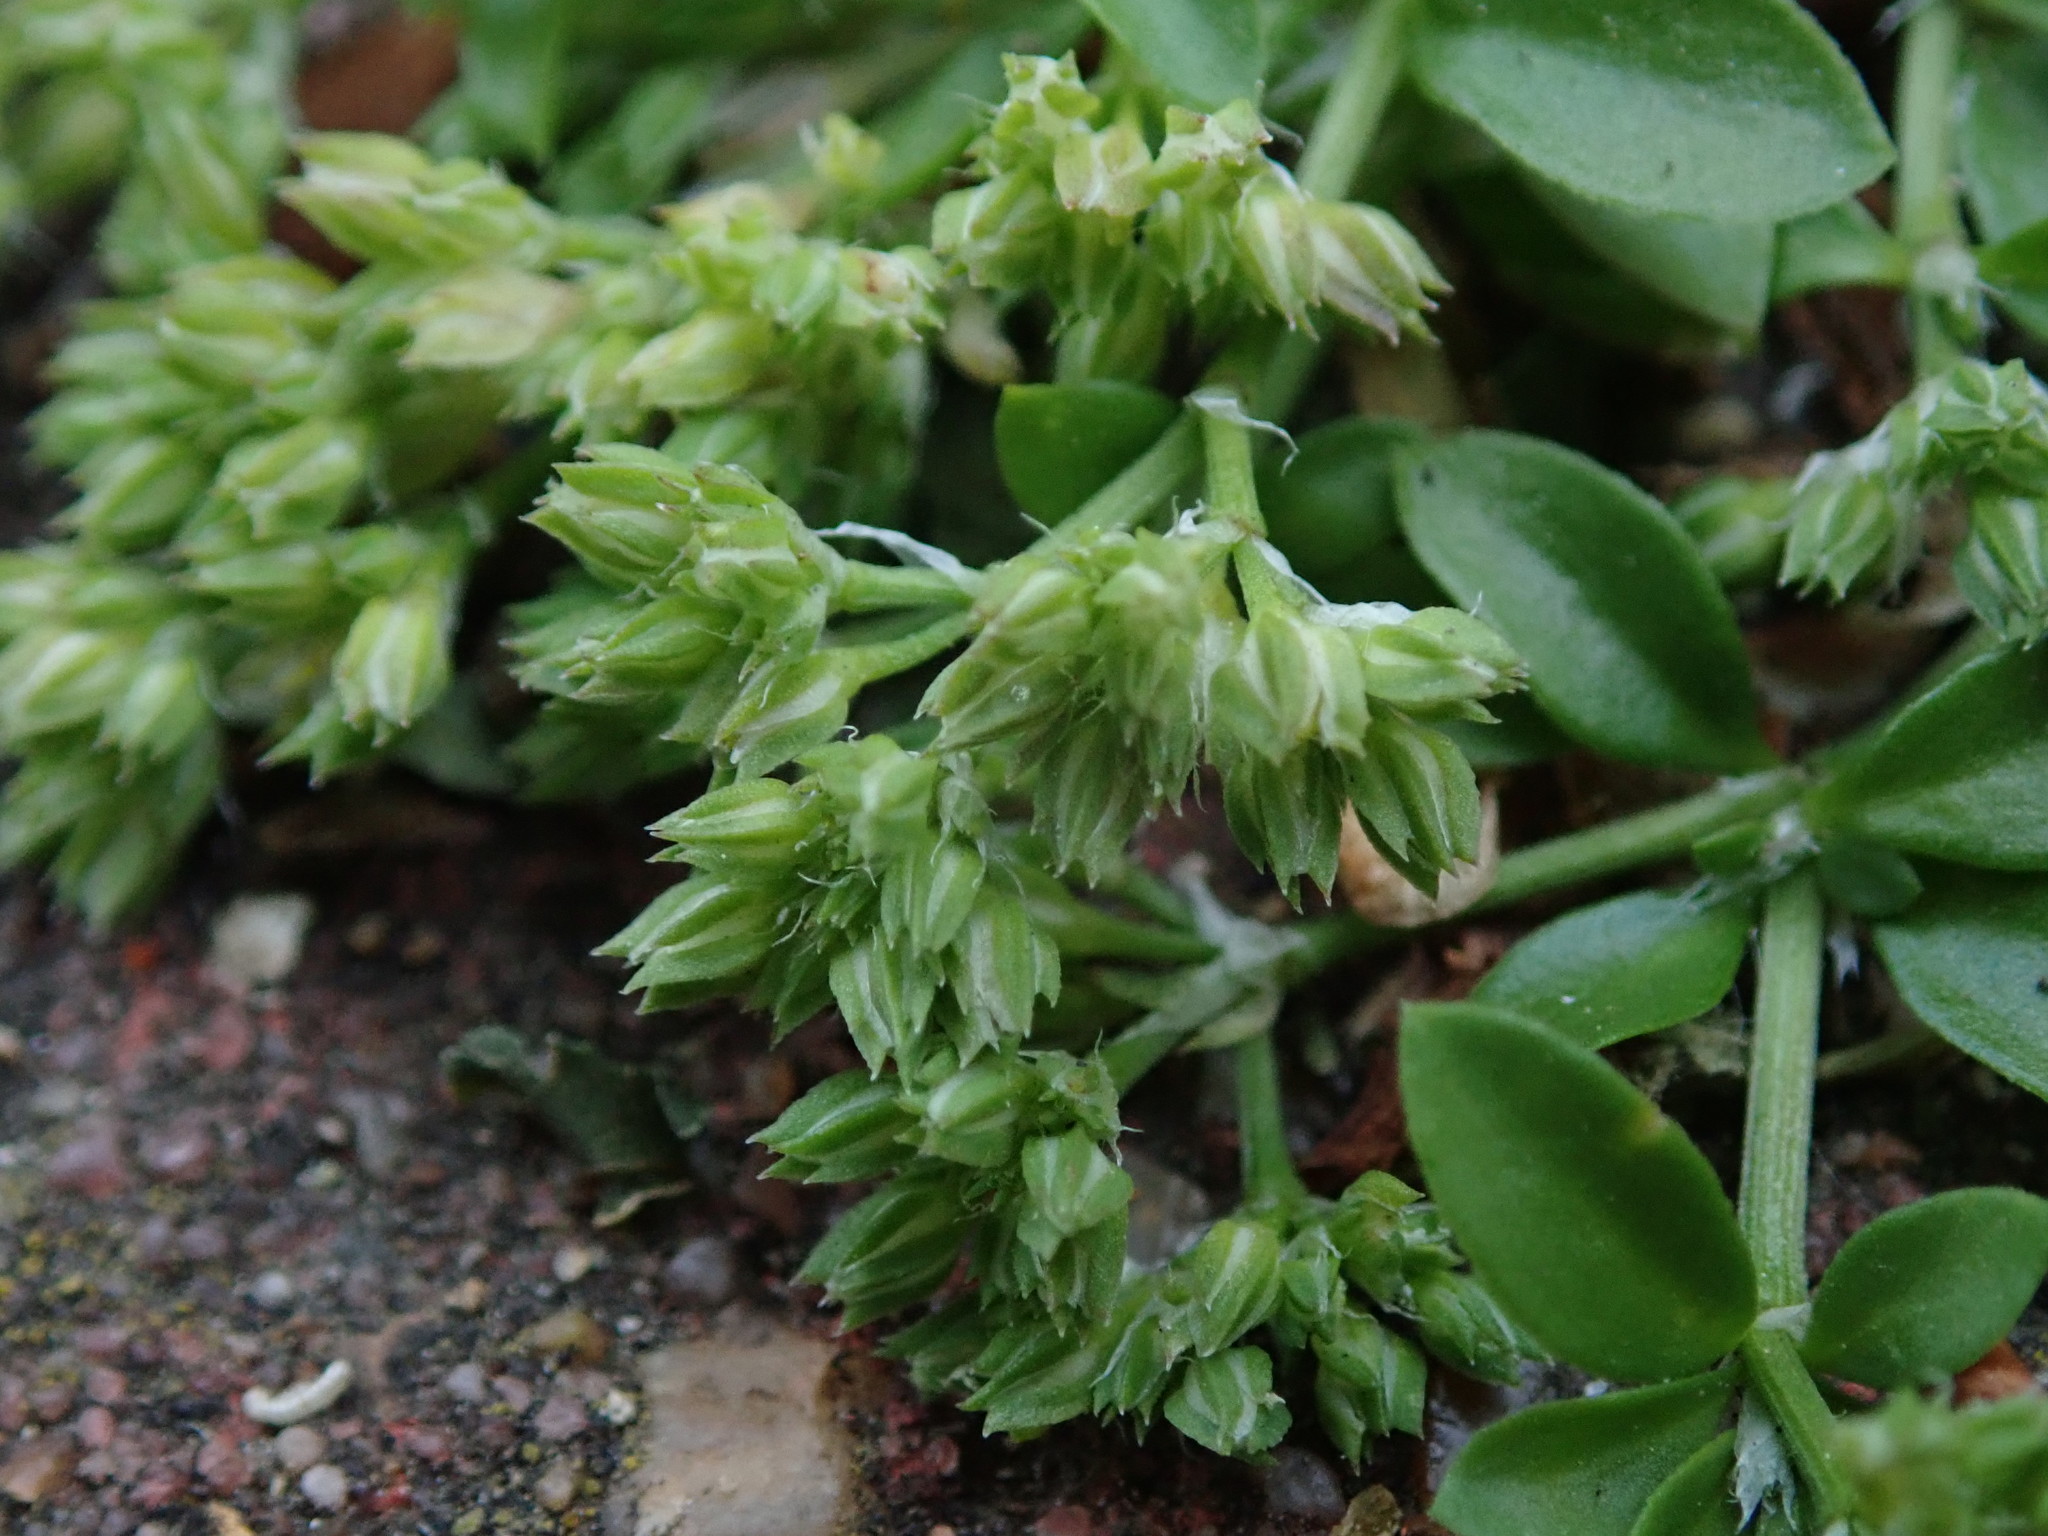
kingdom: Plantae
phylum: Tracheophyta
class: Magnoliopsida
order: Caryophyllales
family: Caryophyllaceae
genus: Polycarpon
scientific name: Polycarpon tetraphyllum
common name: Four-leaved all-seed
